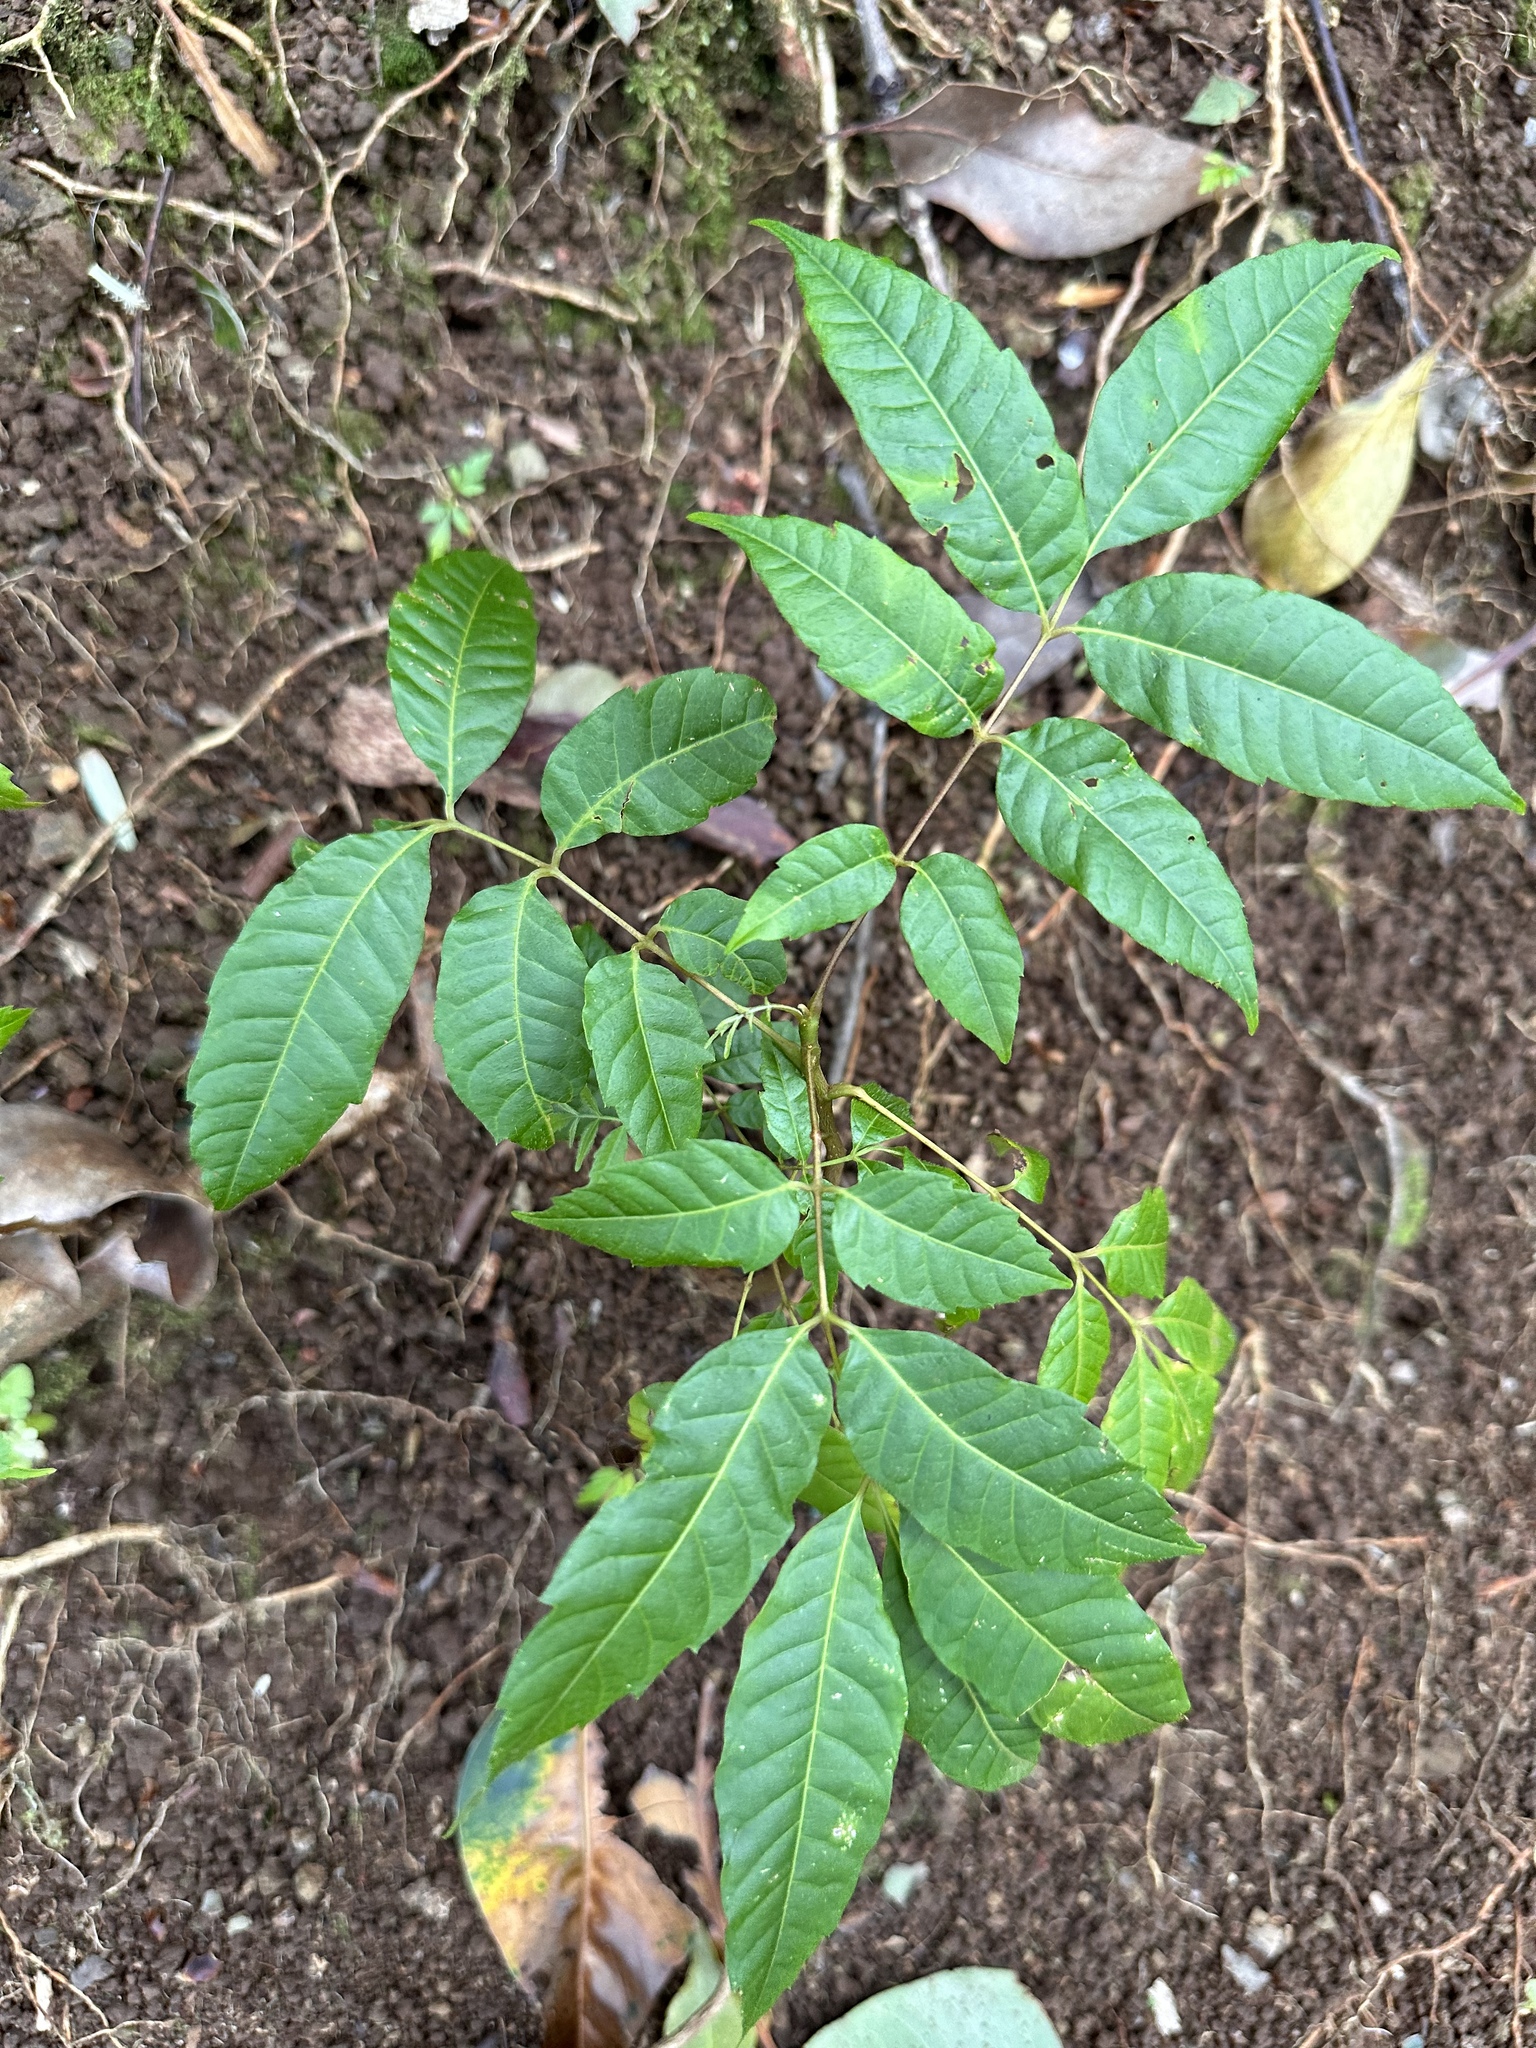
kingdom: Plantae
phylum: Tracheophyta
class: Magnoliopsida
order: Sapindales
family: Meliaceae
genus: Toona
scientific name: Toona ciliata
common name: Australian redcedar
